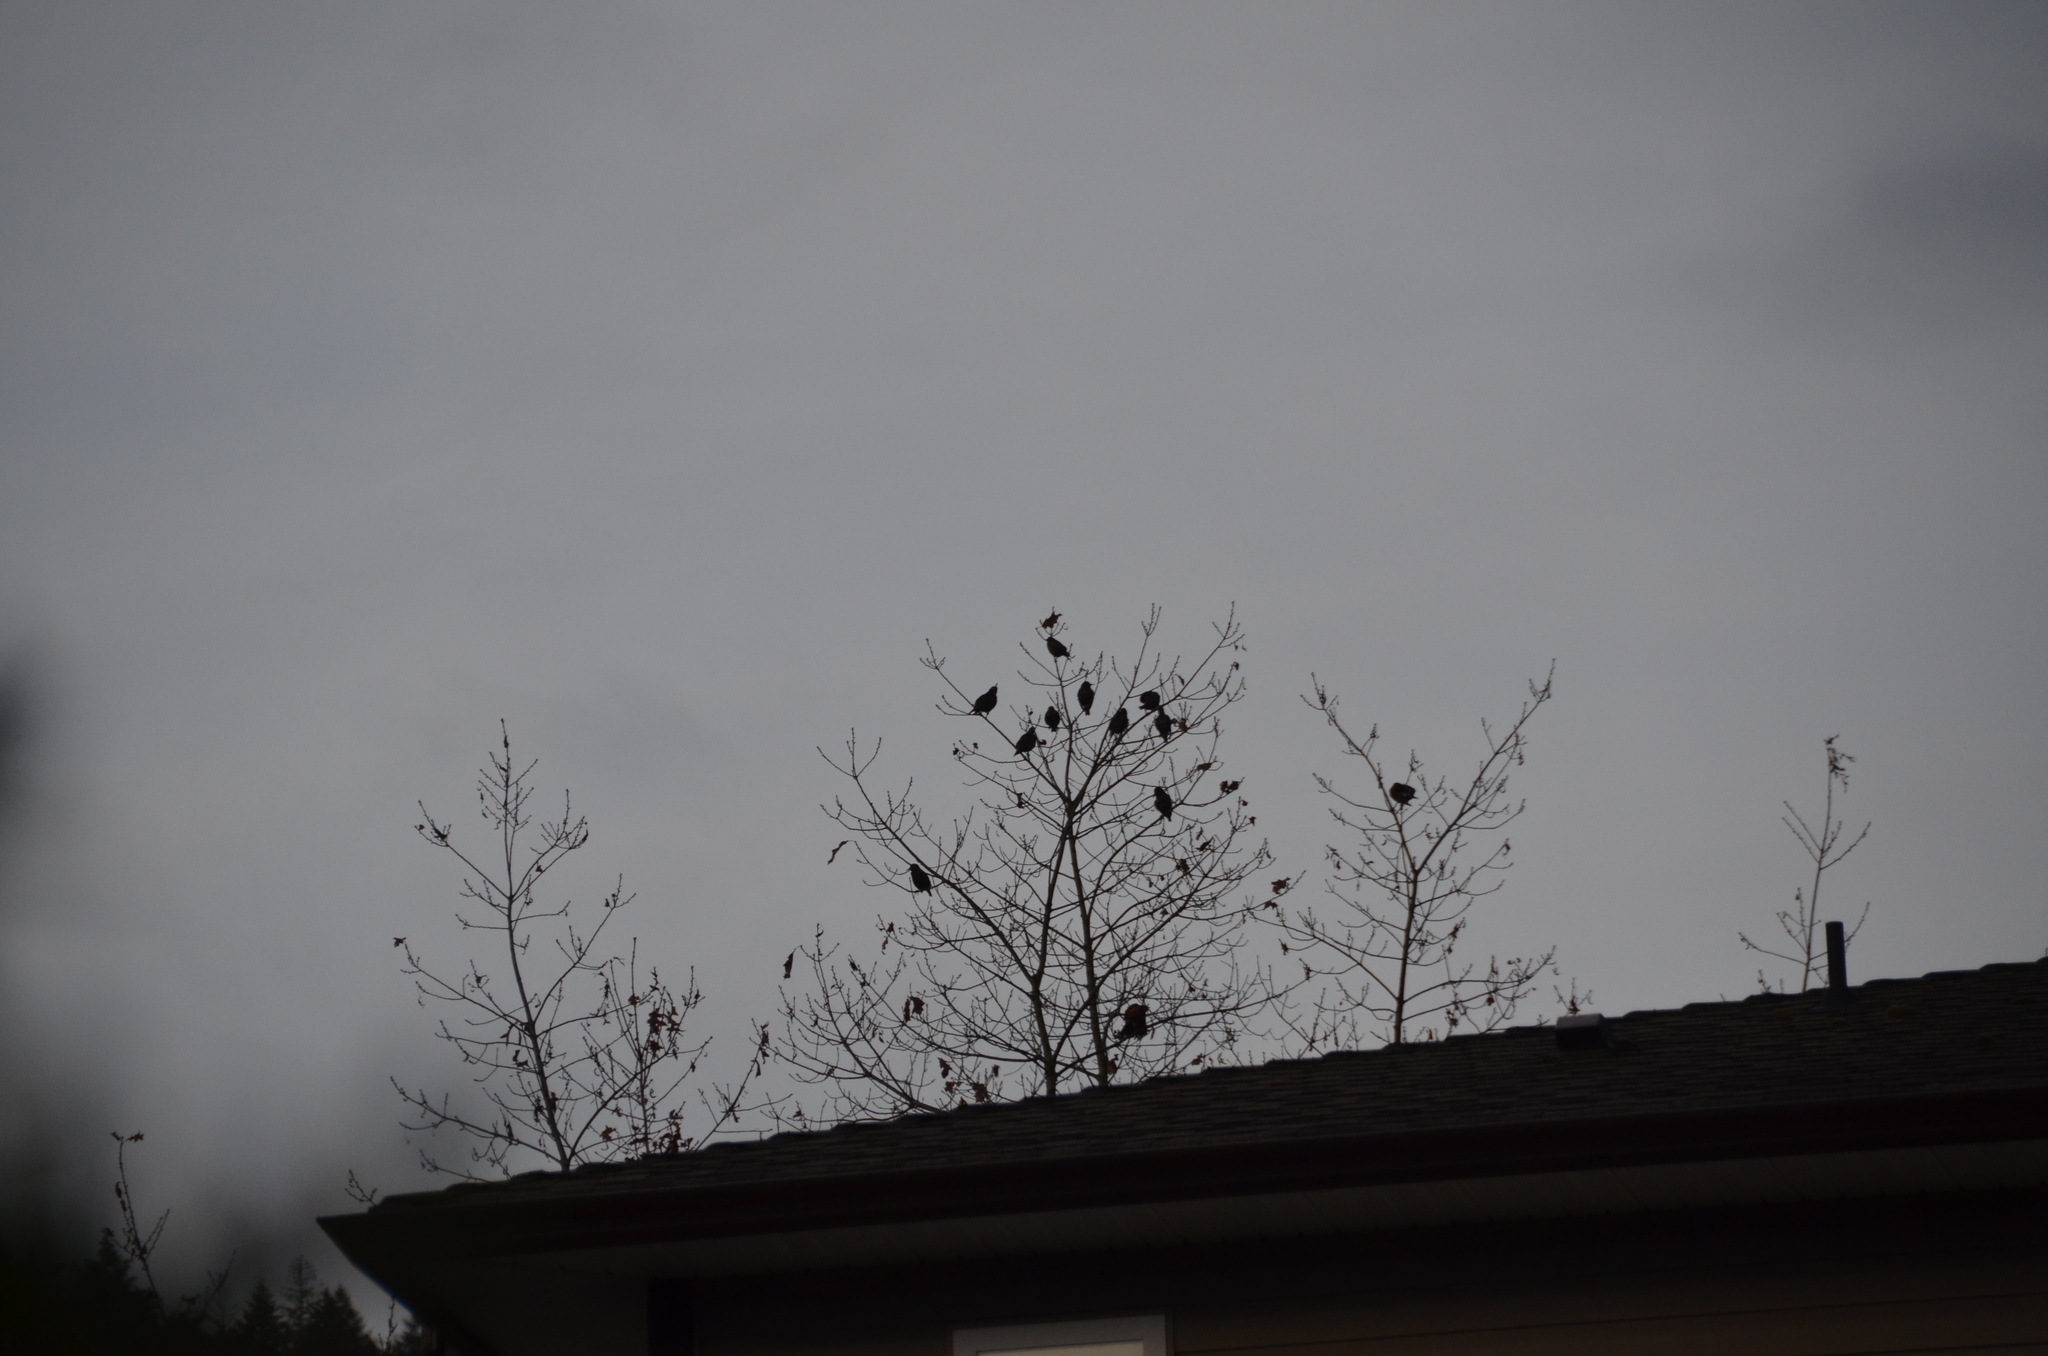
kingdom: Animalia
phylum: Chordata
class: Aves
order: Passeriformes
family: Sturnidae
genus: Sturnus
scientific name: Sturnus vulgaris
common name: Common starling
